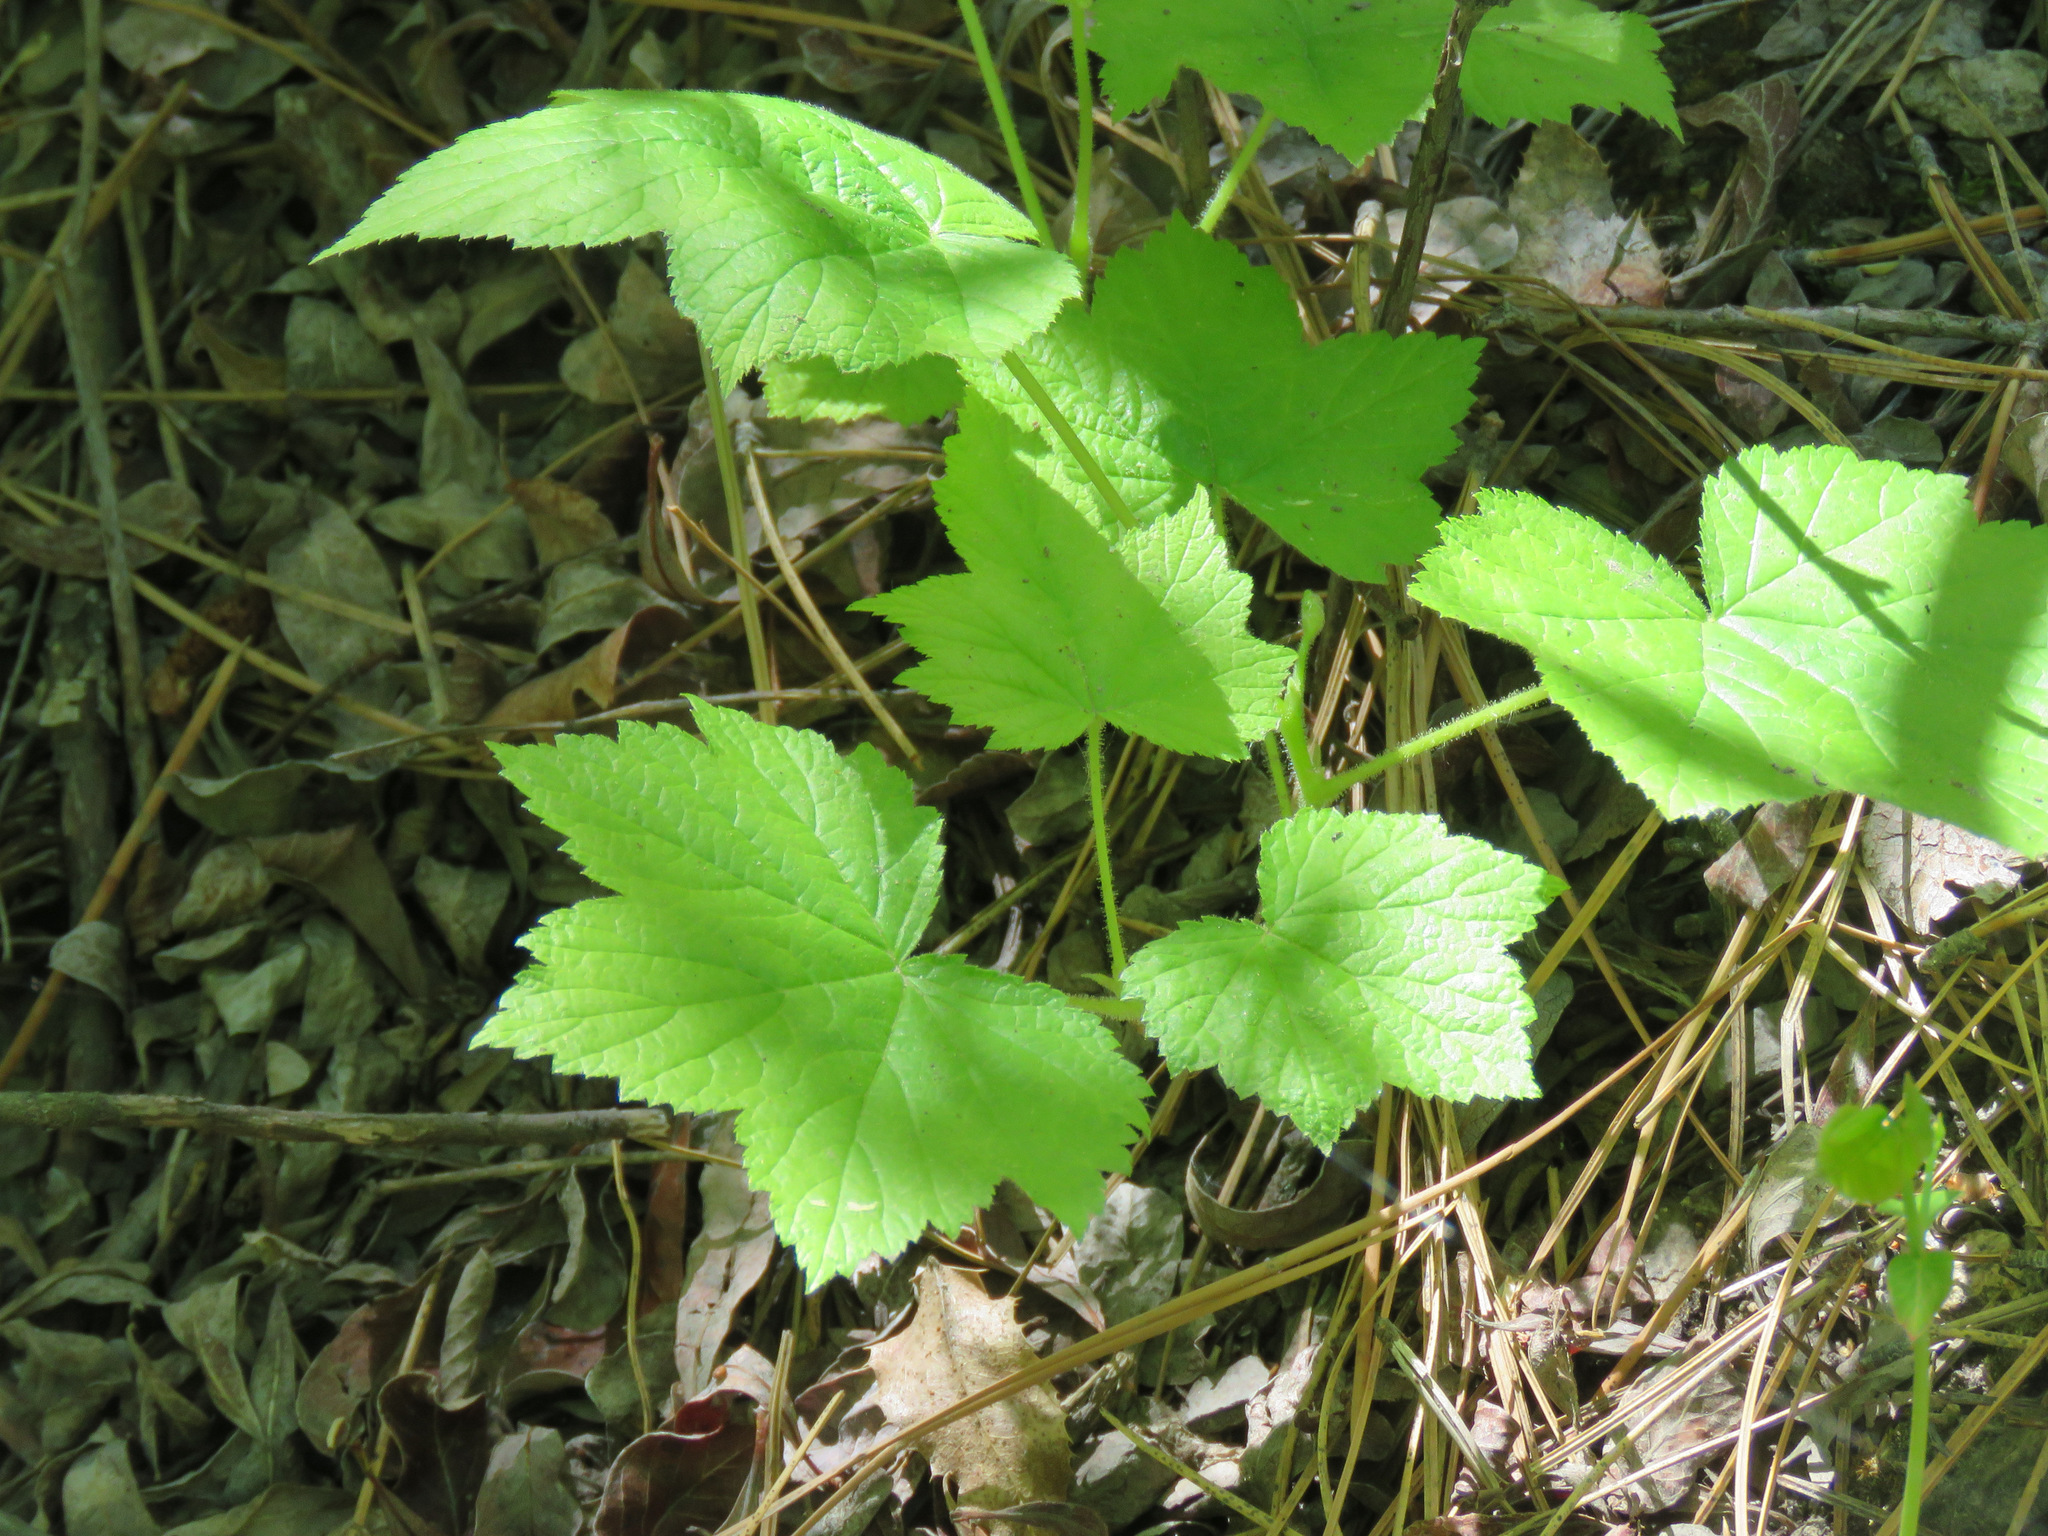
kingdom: Plantae
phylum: Tracheophyta
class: Magnoliopsida
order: Rosales
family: Rosaceae
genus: Rubus
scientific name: Rubus parviflorus
